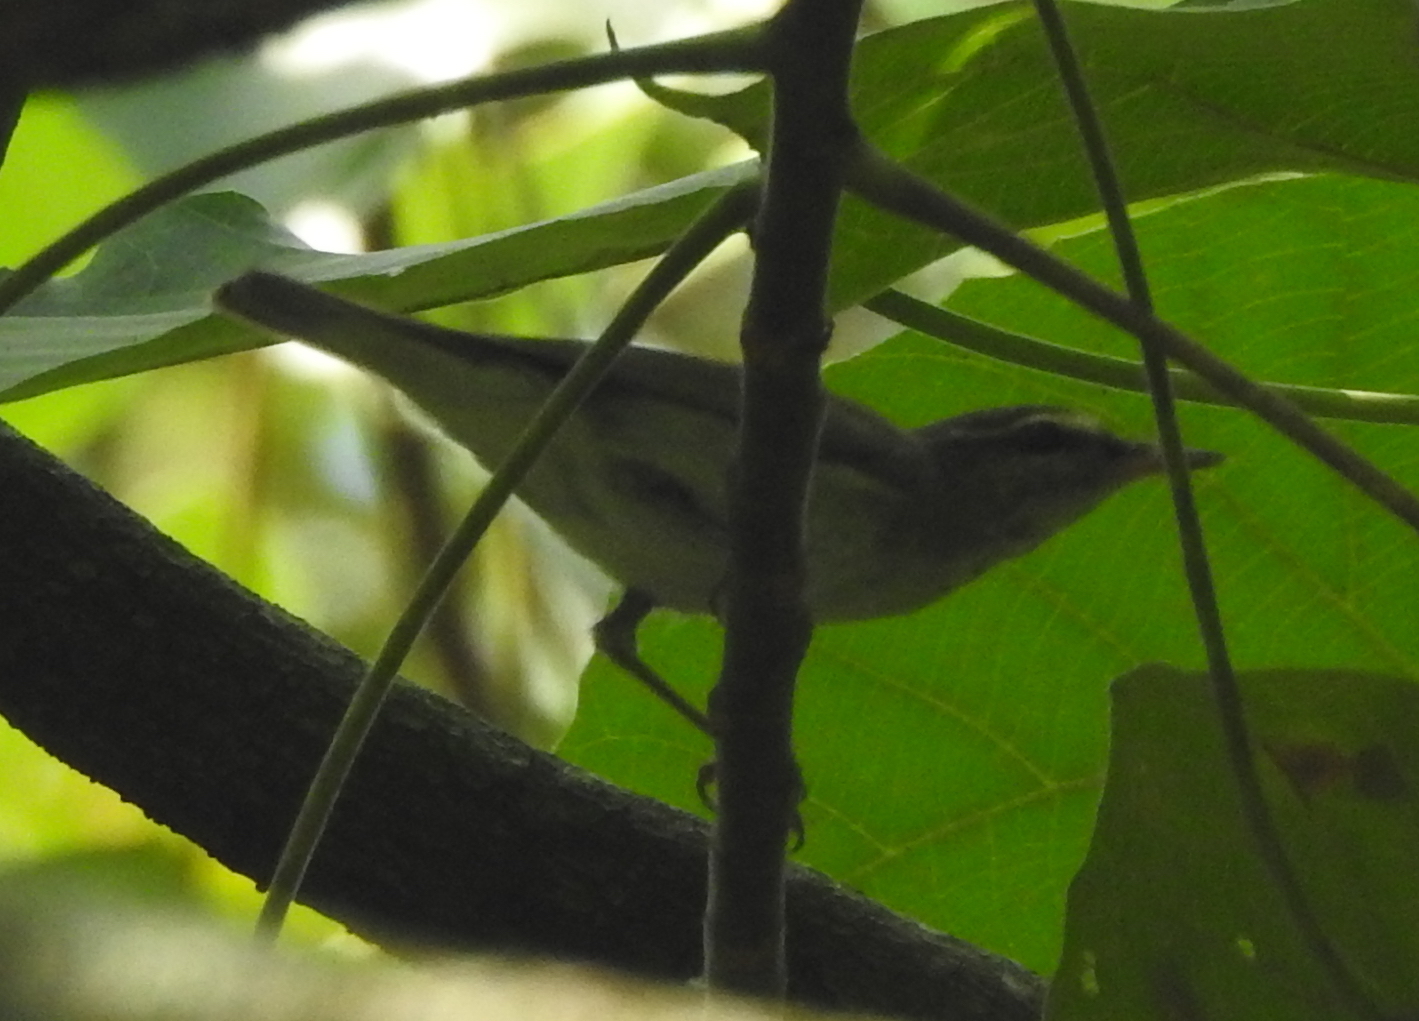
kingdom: Animalia
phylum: Chordata
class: Aves
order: Passeriformes
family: Phylloscopidae
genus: Phylloscopus
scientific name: Phylloscopus borealis
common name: Arctic warbler
